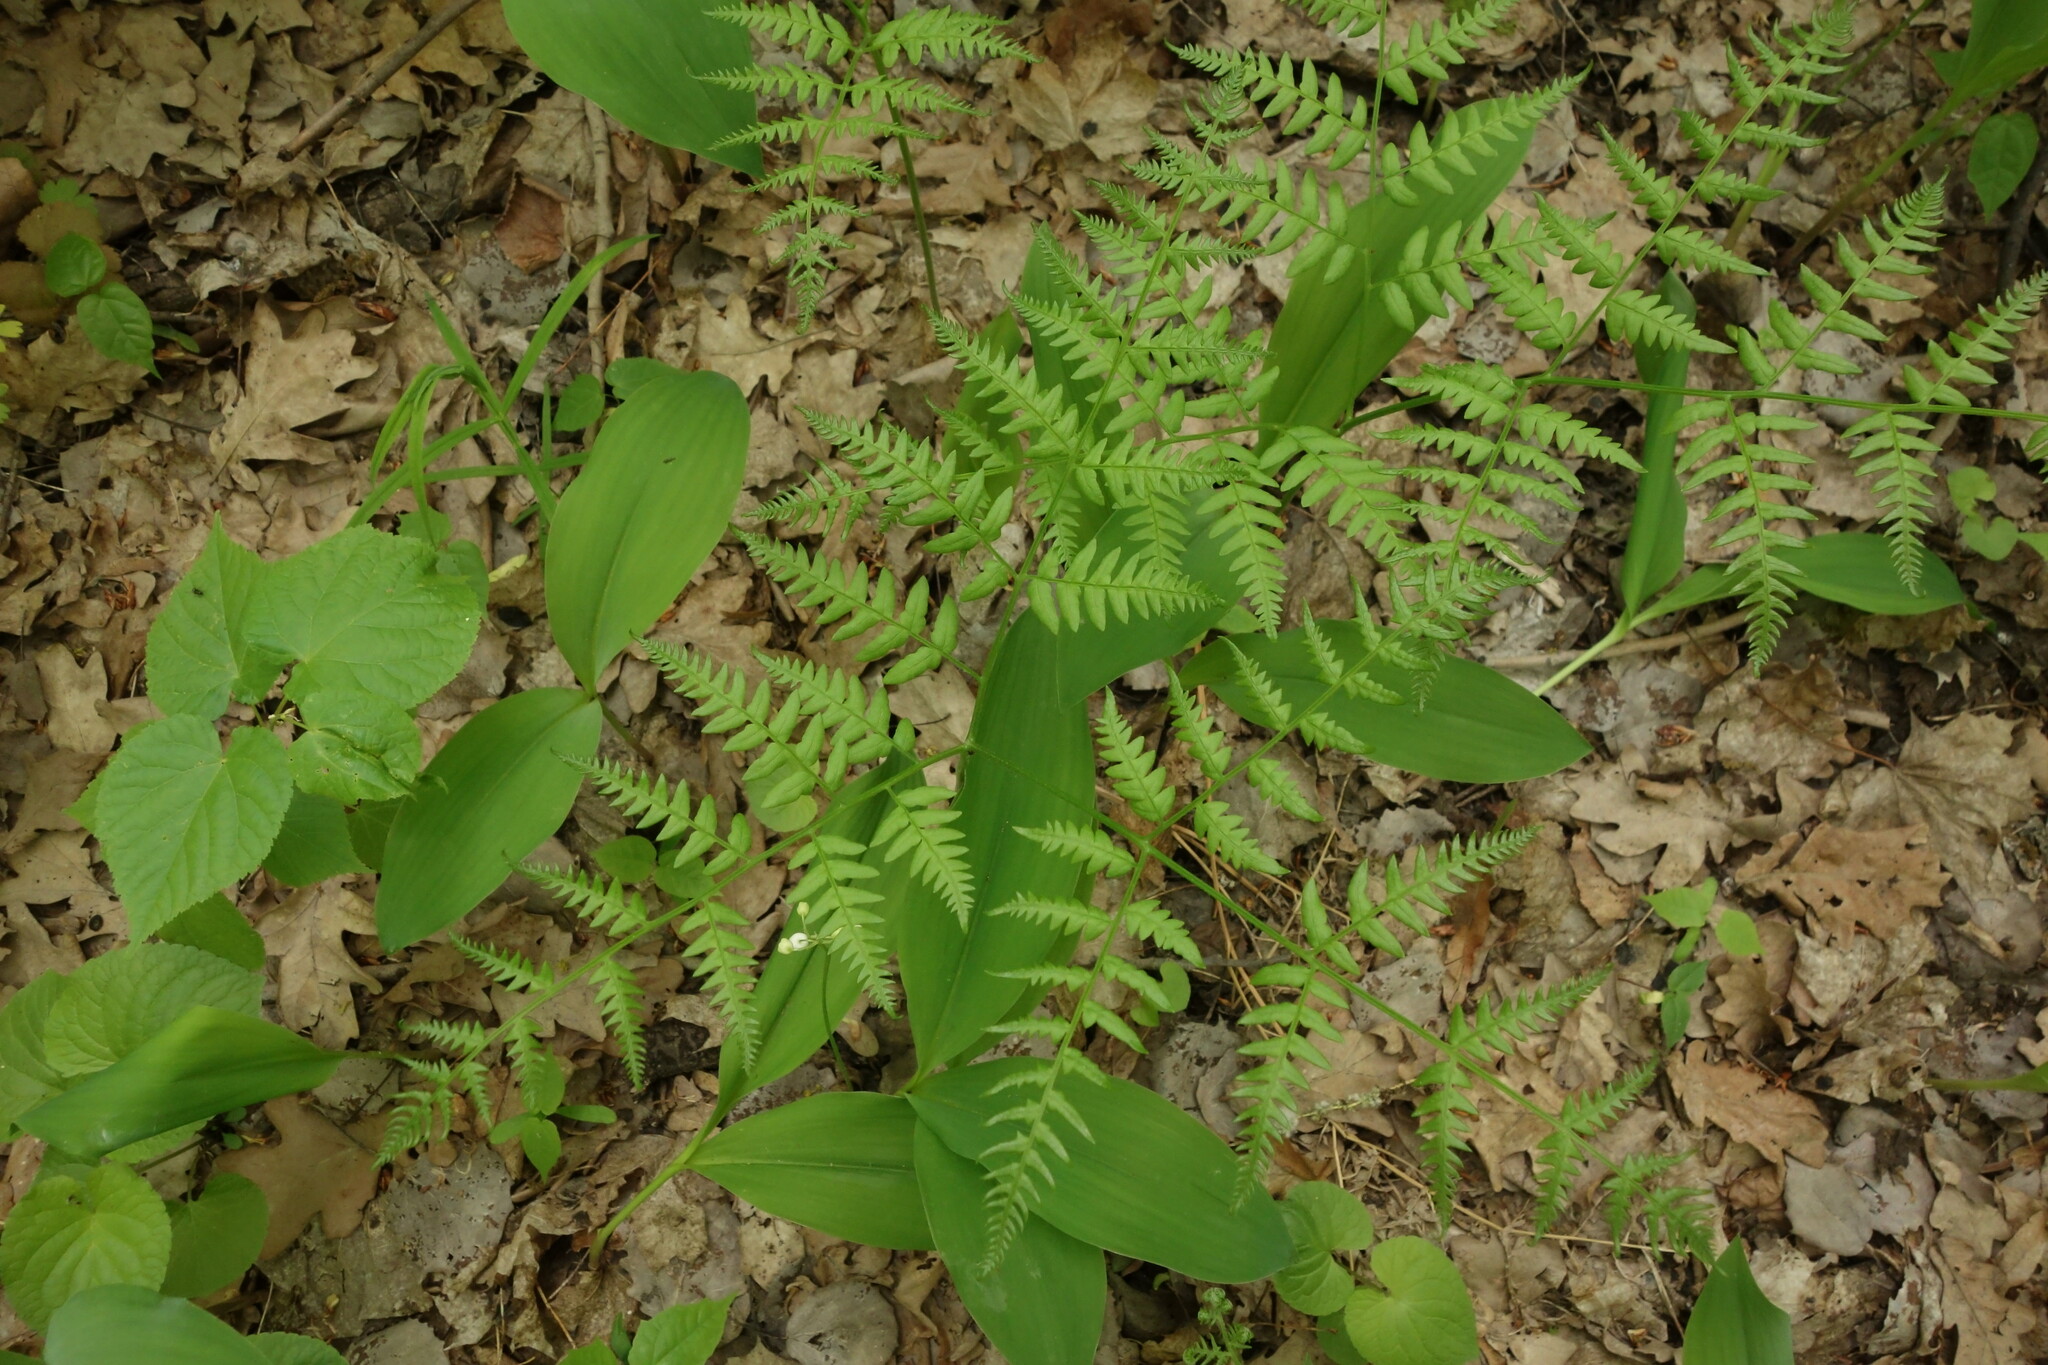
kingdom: Plantae
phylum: Tracheophyta
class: Polypodiopsida
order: Polypodiales
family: Dennstaedtiaceae
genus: Pteridium
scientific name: Pteridium aquilinum
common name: Bracken
